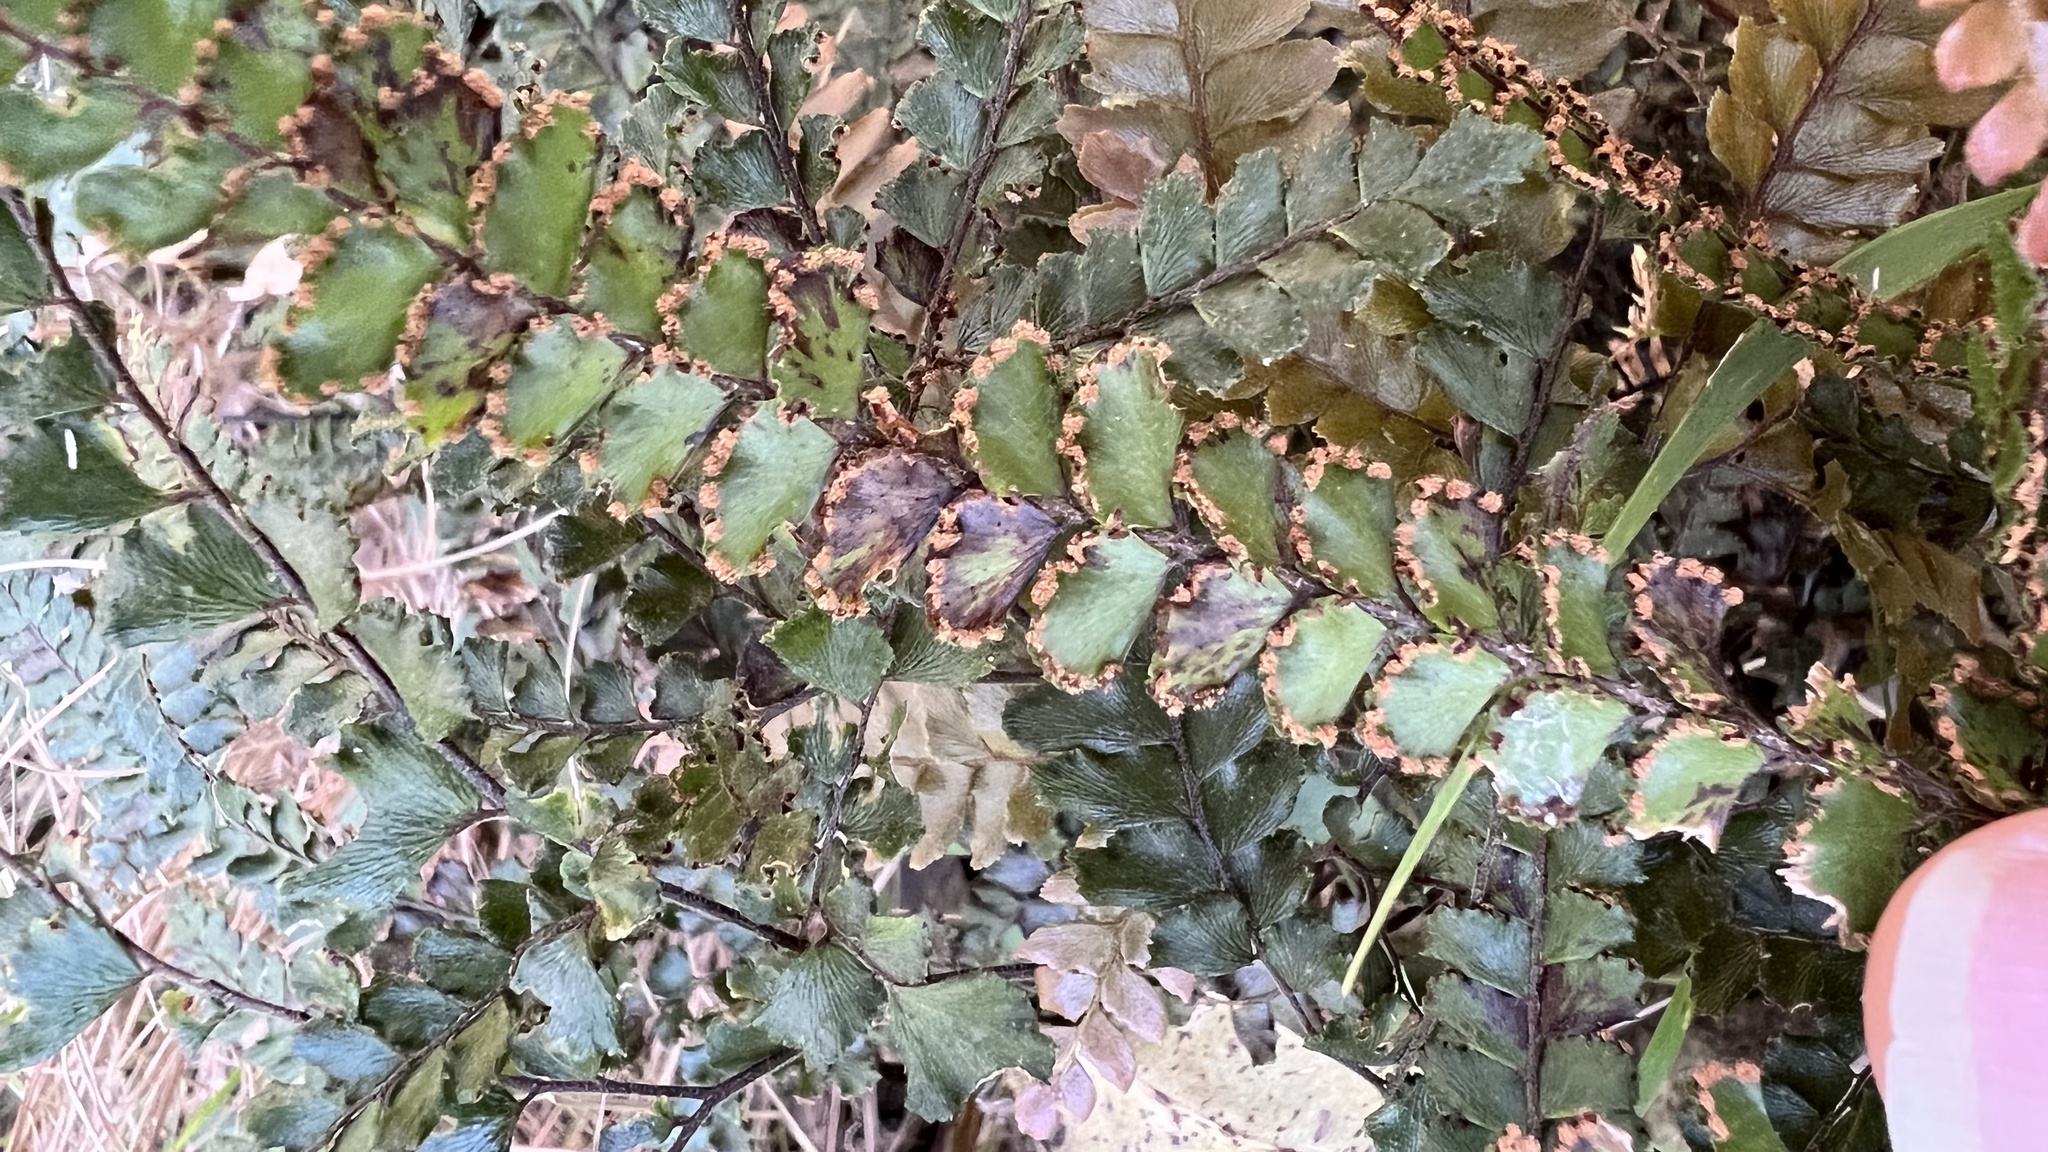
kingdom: Plantae
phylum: Tracheophyta
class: Polypodiopsida
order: Polypodiales
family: Pteridaceae
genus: Adiantum
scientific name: Adiantum hispidulum
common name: Rough maidenhair
